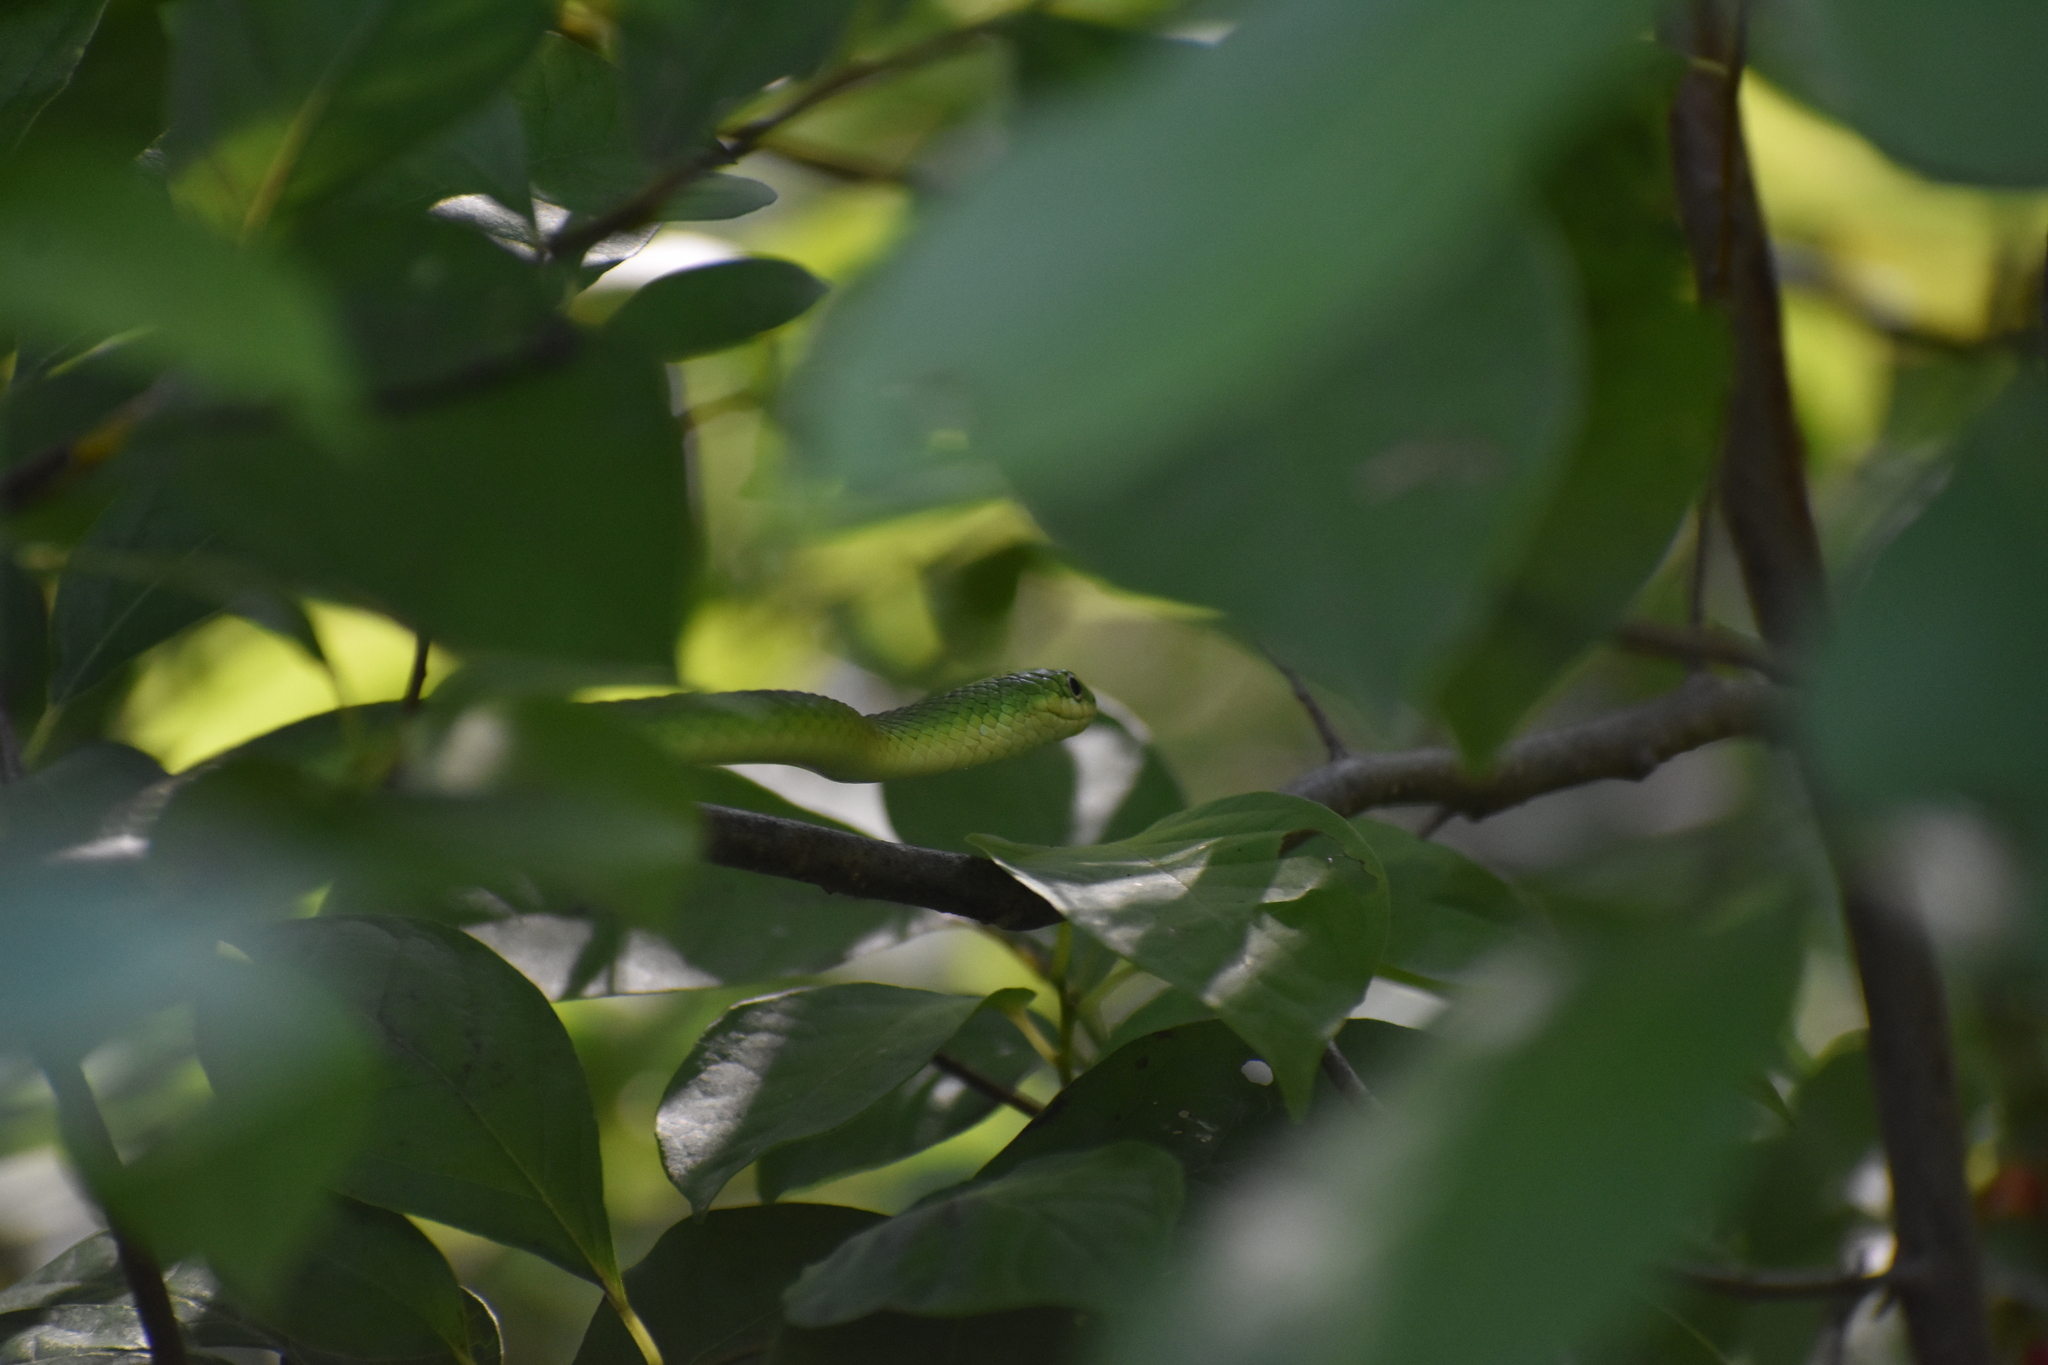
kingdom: Animalia
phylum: Chordata
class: Squamata
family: Colubridae
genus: Opheodrys
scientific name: Opheodrys aestivus
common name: Rough greensnake
